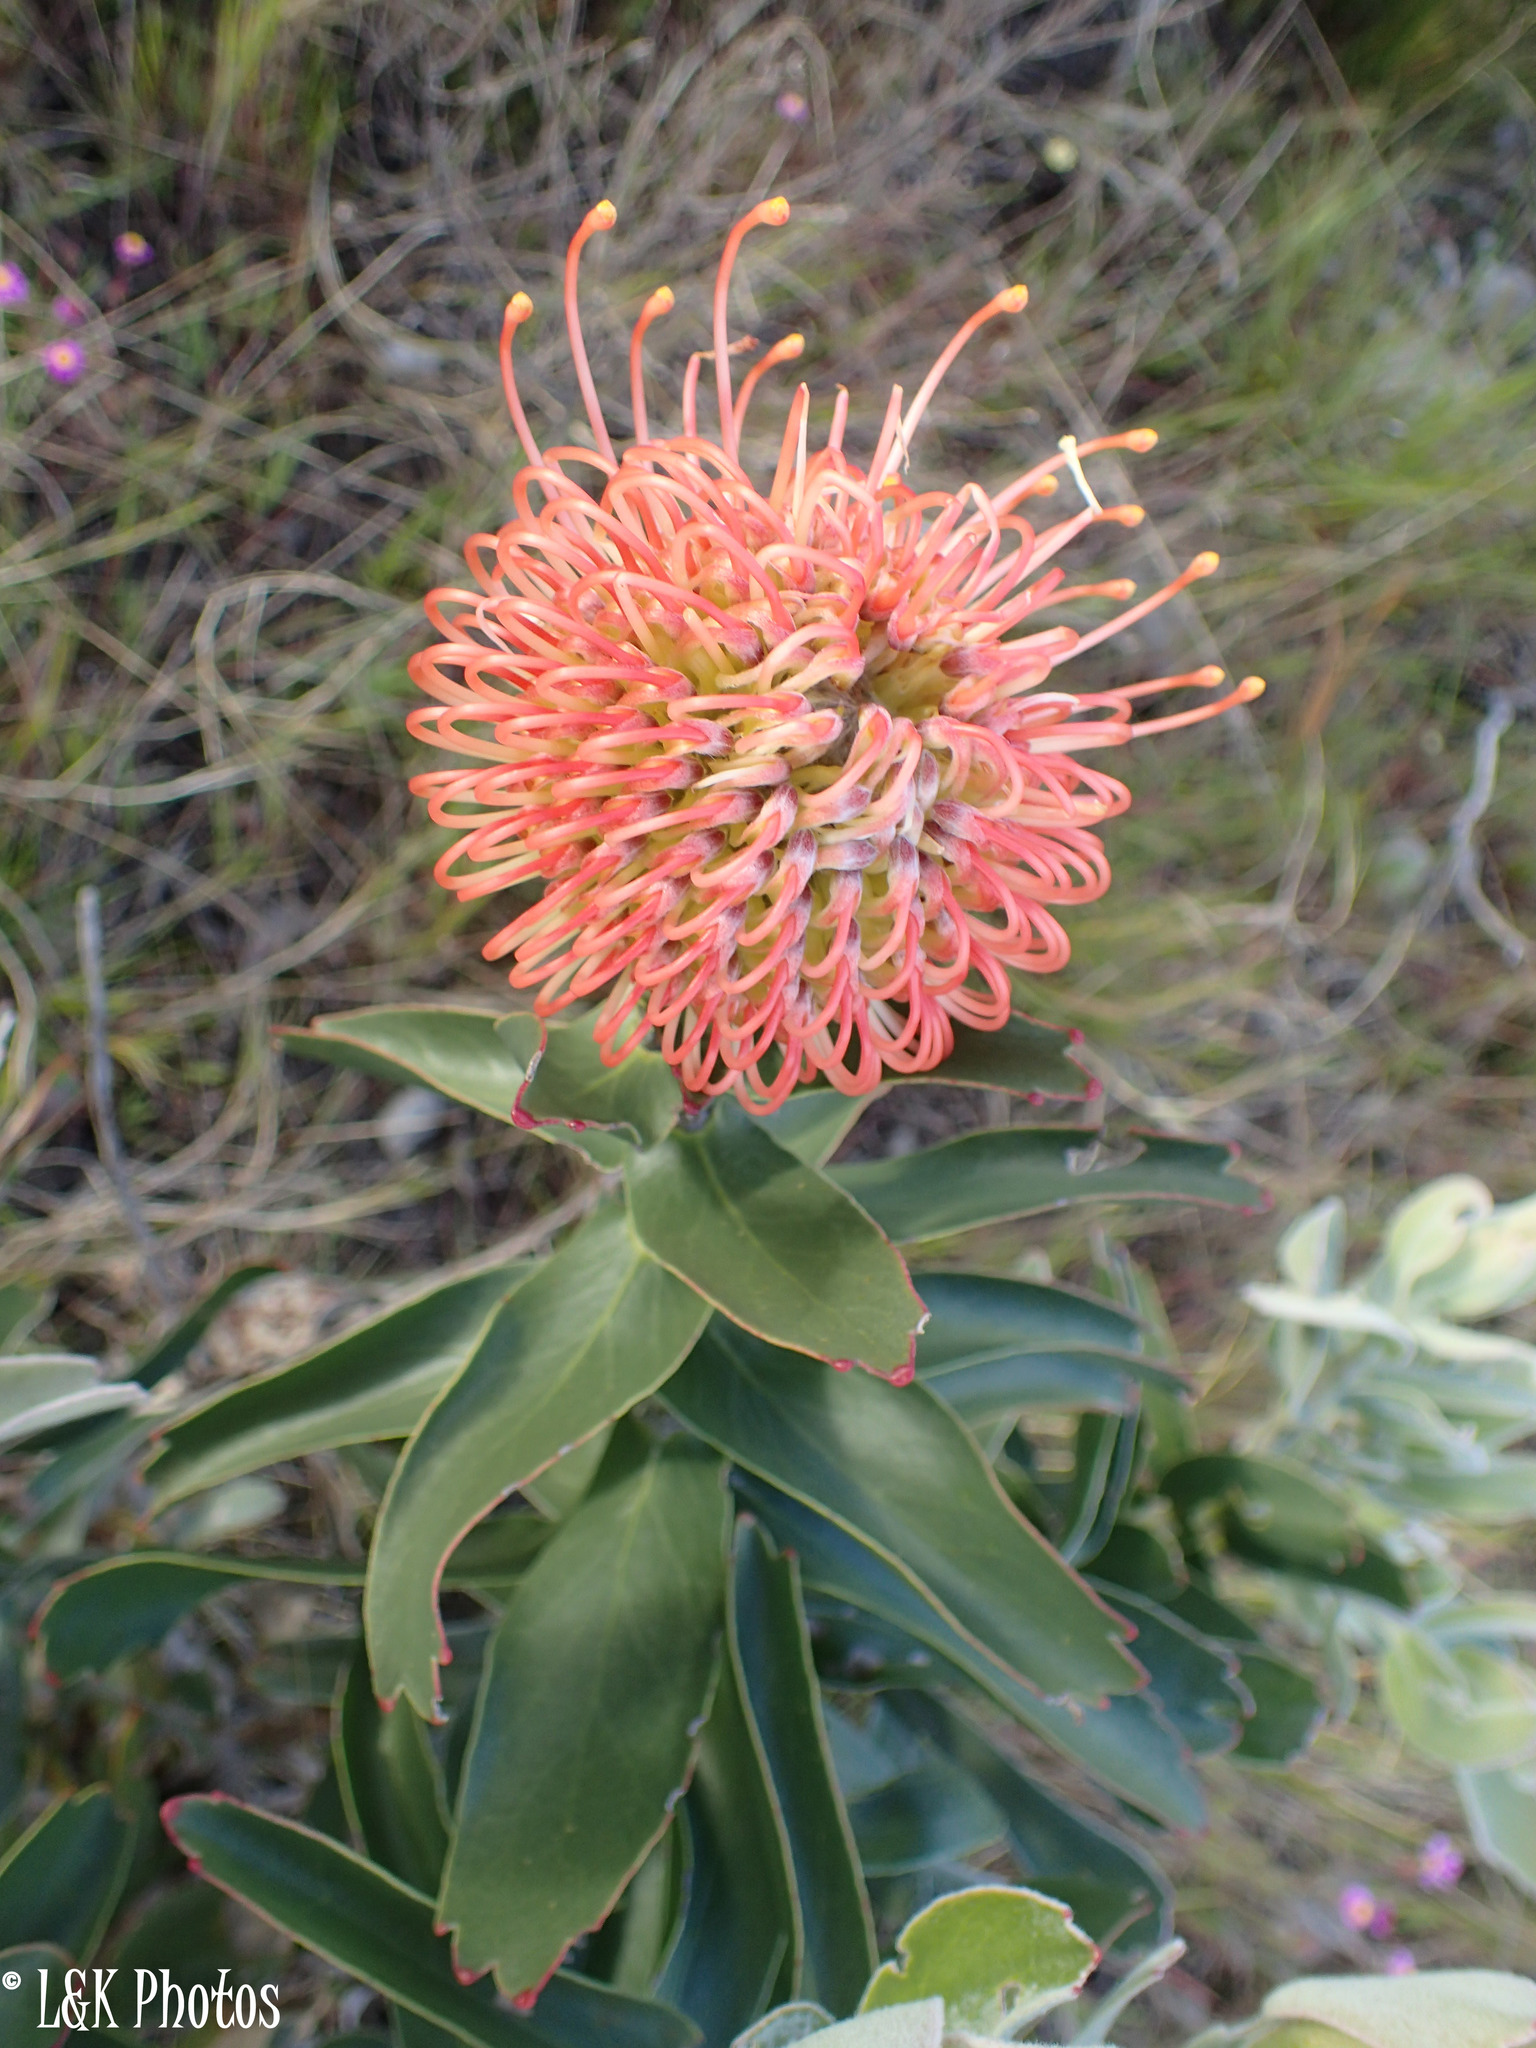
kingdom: Plantae
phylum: Tracheophyta
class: Magnoliopsida
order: Proteales
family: Proteaceae
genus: Leucospermum
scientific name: Leucospermum cordifolium
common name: Red pincushion-protea
